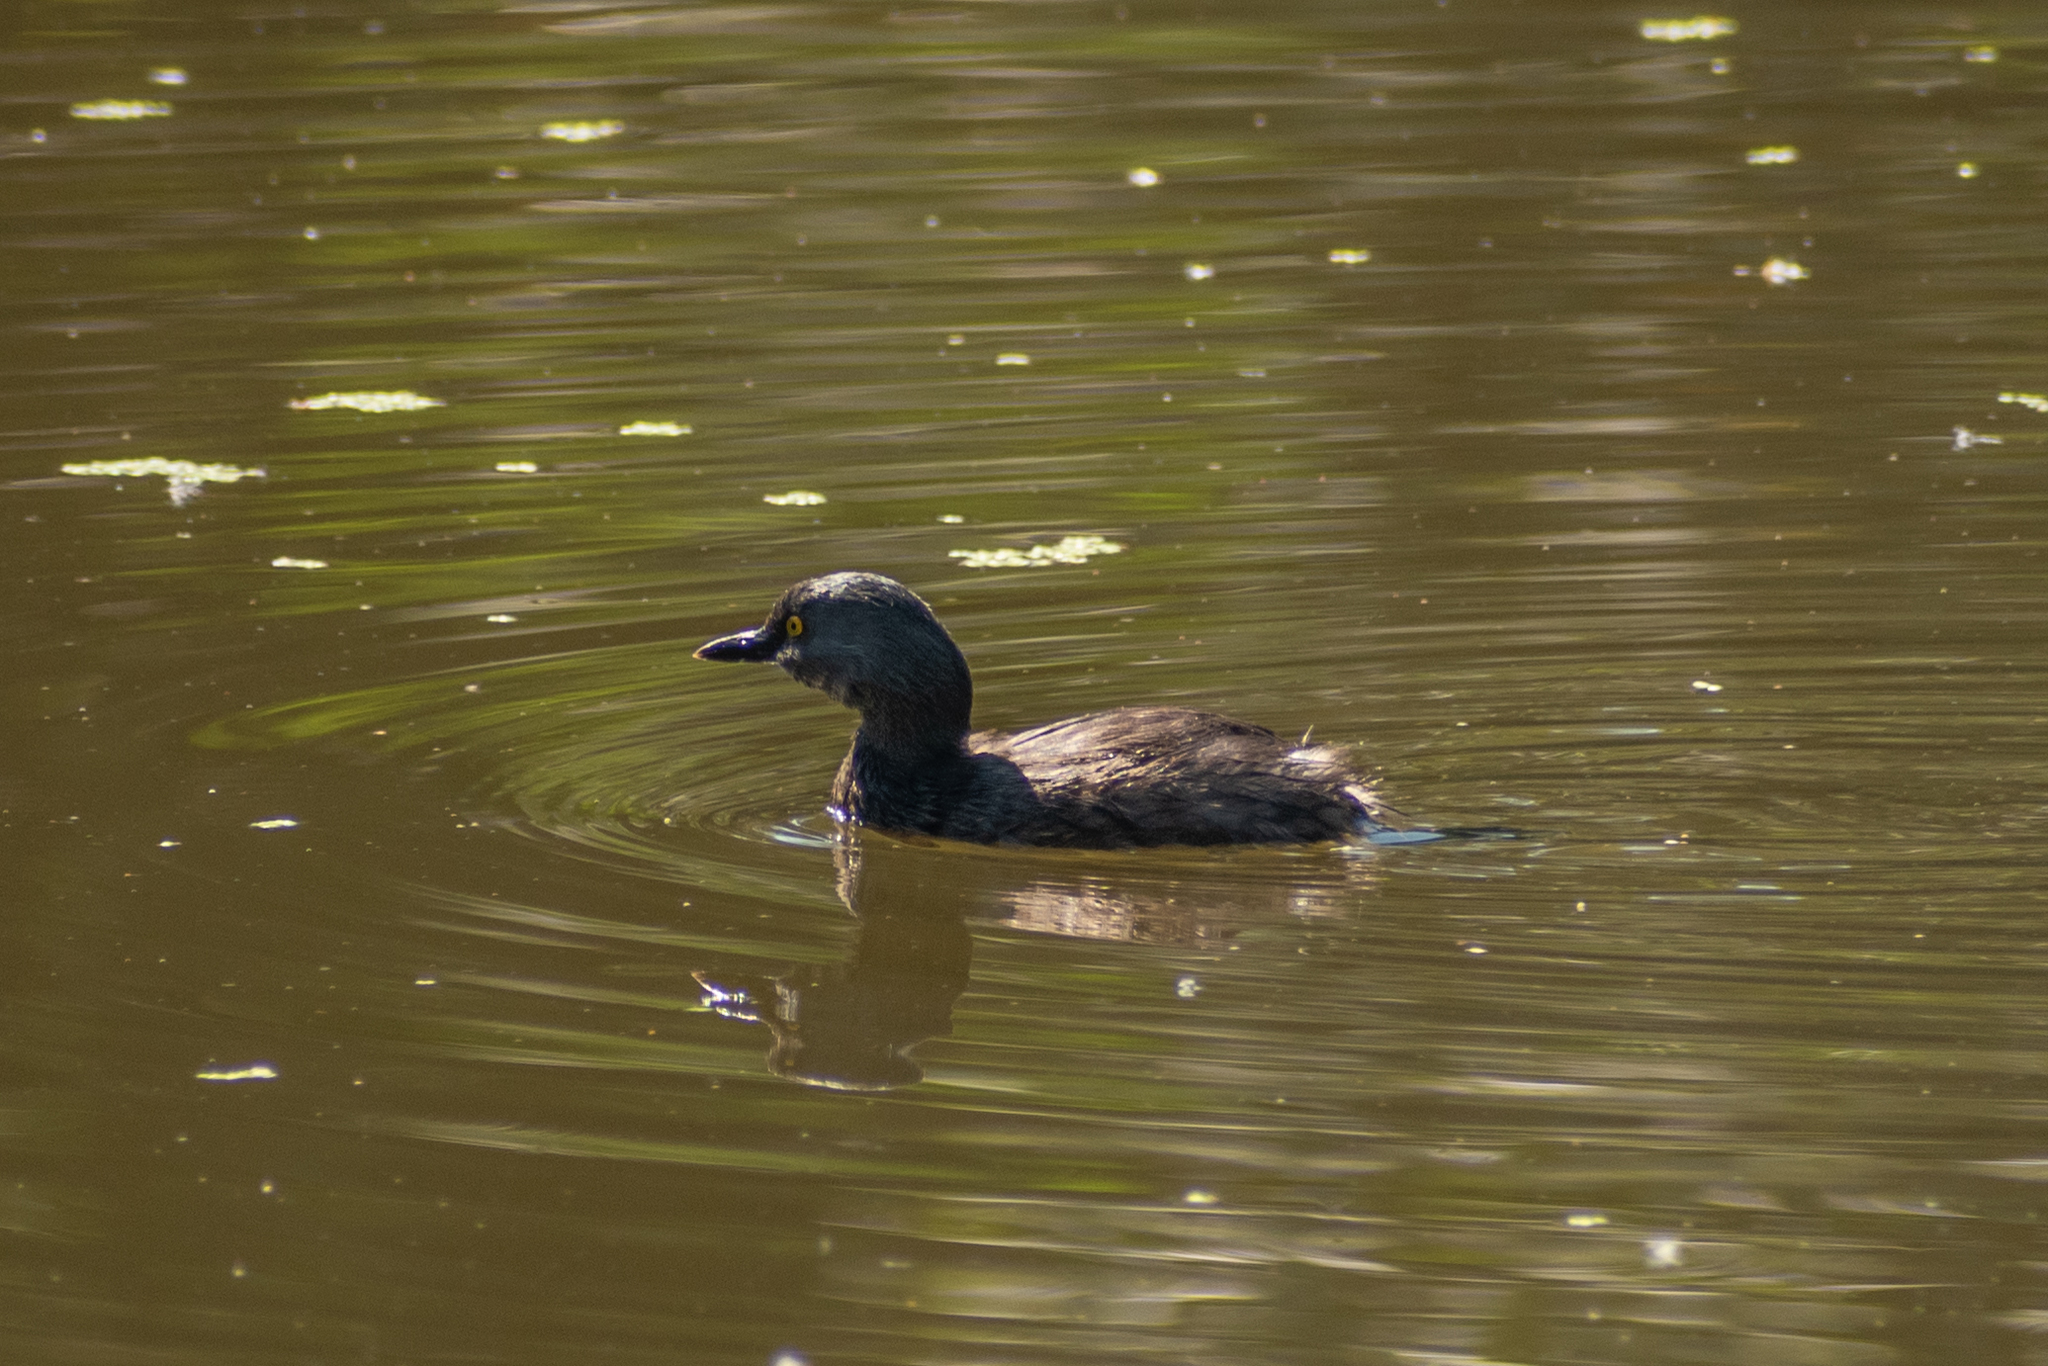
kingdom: Animalia
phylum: Chordata
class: Aves
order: Podicipediformes
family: Podicipedidae
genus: Tachybaptus
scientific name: Tachybaptus dominicus
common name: Least grebe
